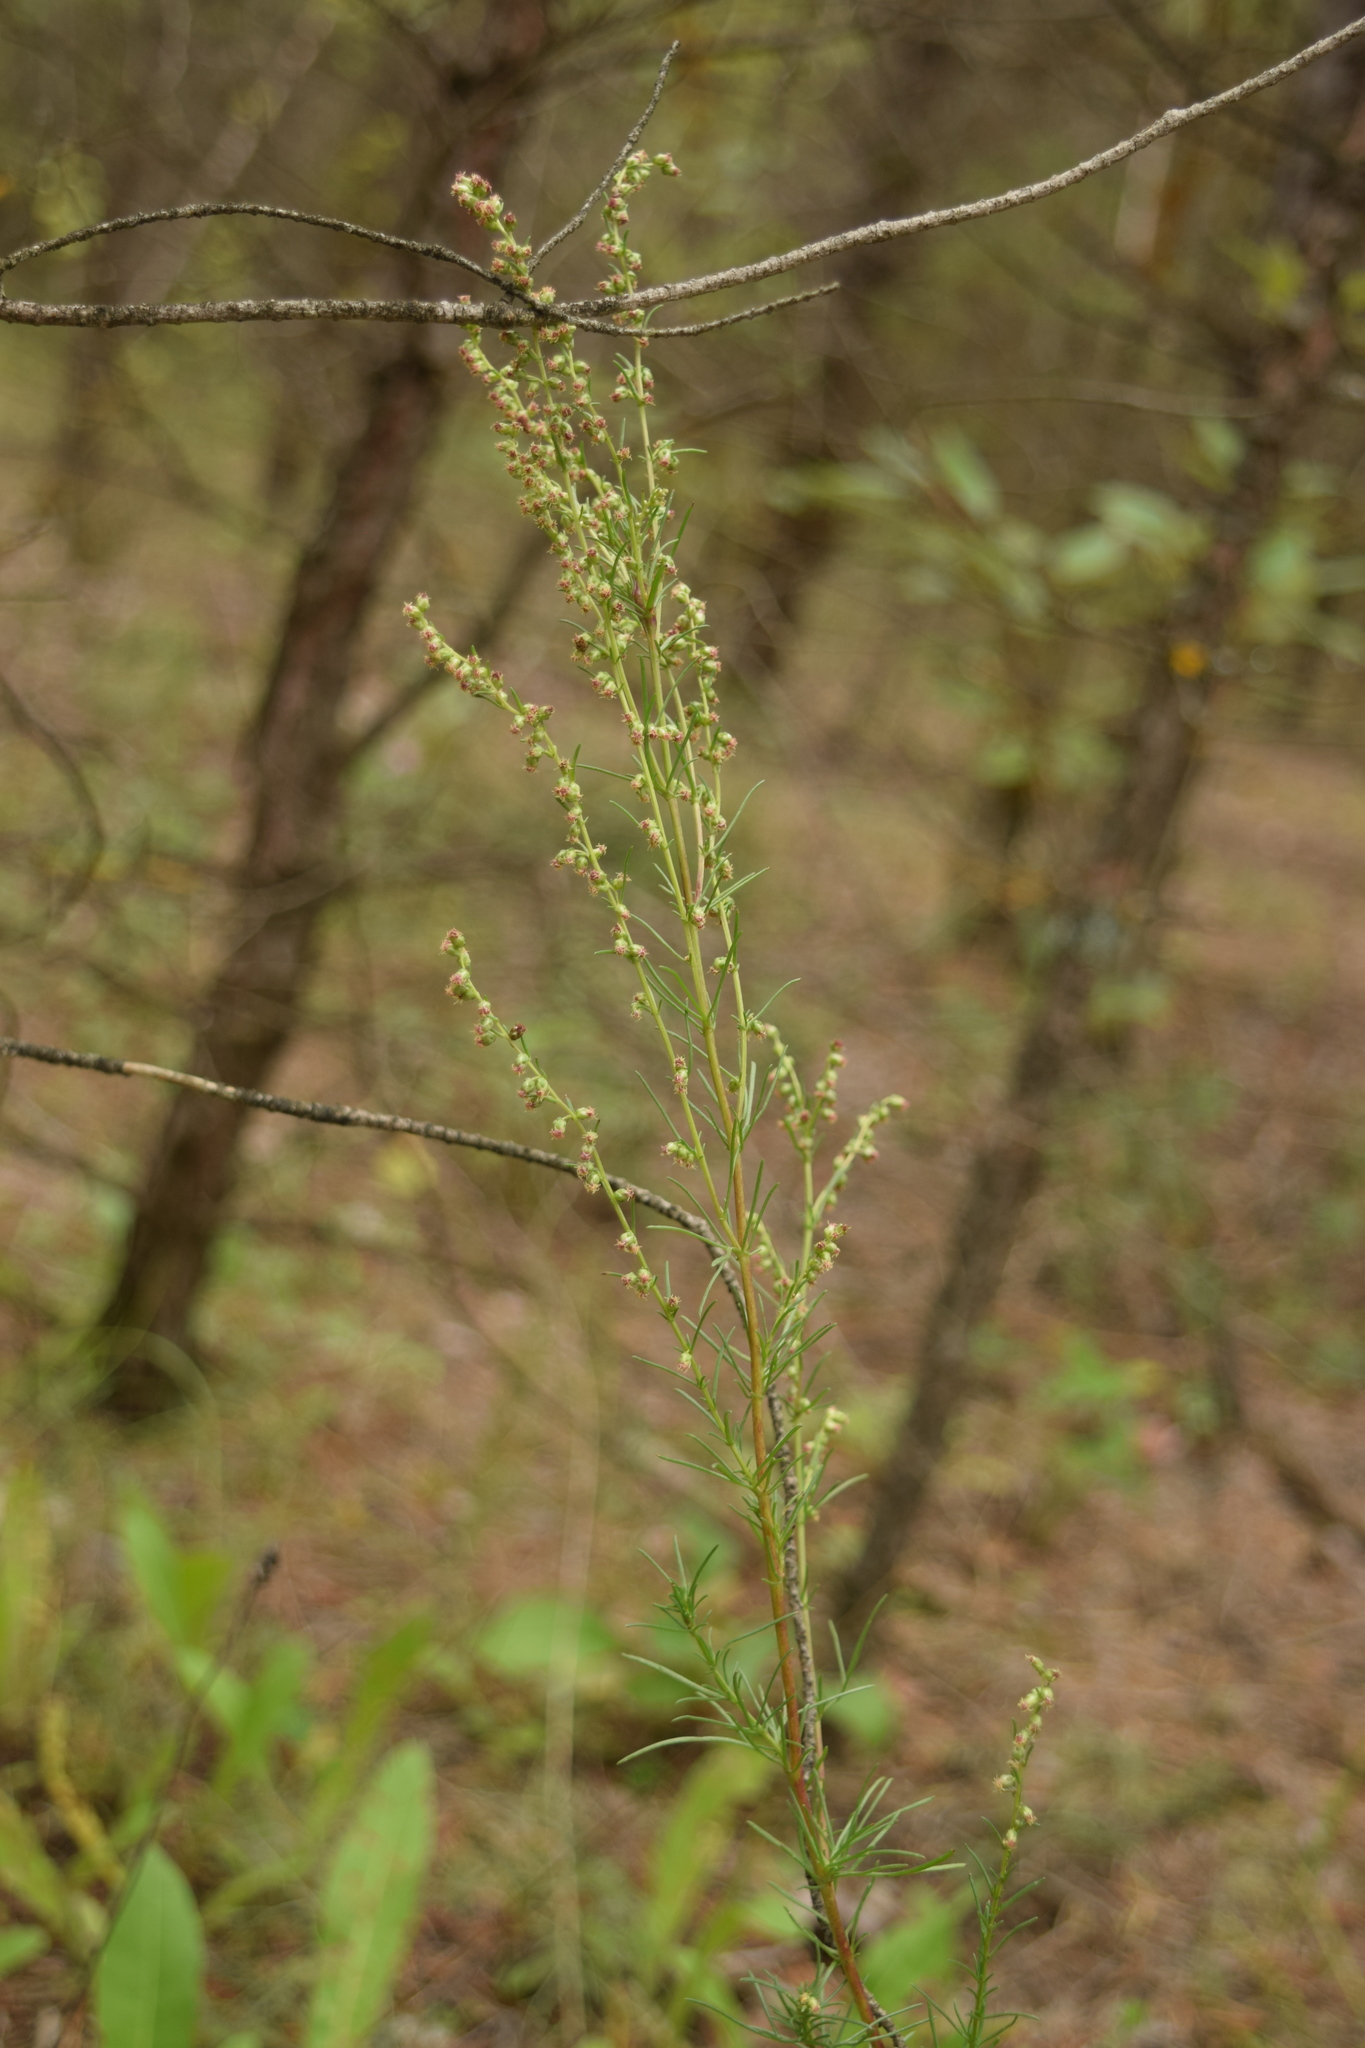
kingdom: Plantae
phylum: Tracheophyta
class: Magnoliopsida
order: Asterales
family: Asteraceae
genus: Artemisia
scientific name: Artemisia campestris
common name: Field wormwood
